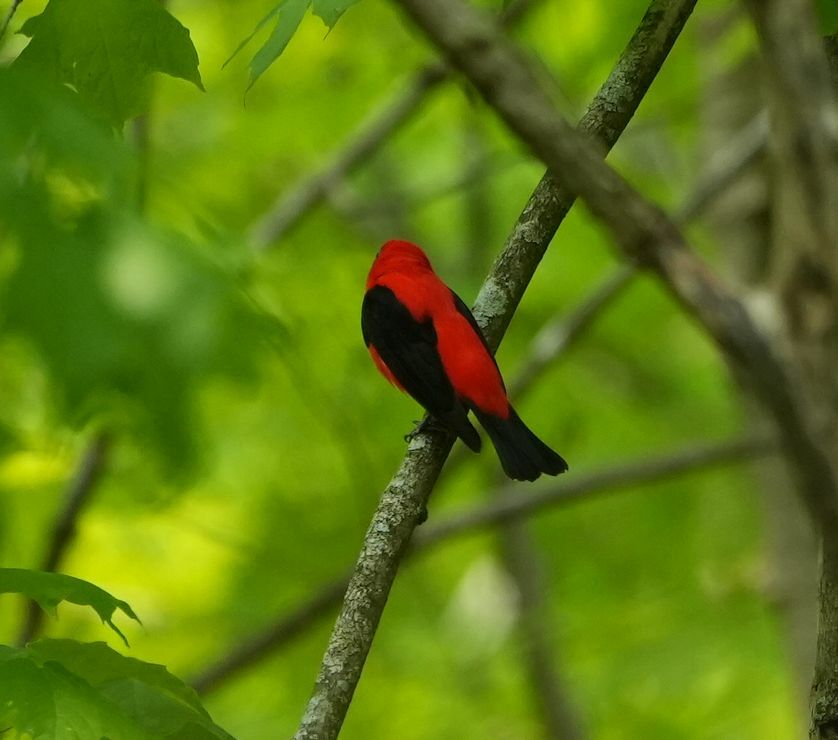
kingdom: Animalia
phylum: Chordata
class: Aves
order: Passeriformes
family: Cardinalidae
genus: Piranga
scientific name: Piranga olivacea
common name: Scarlet tanager
